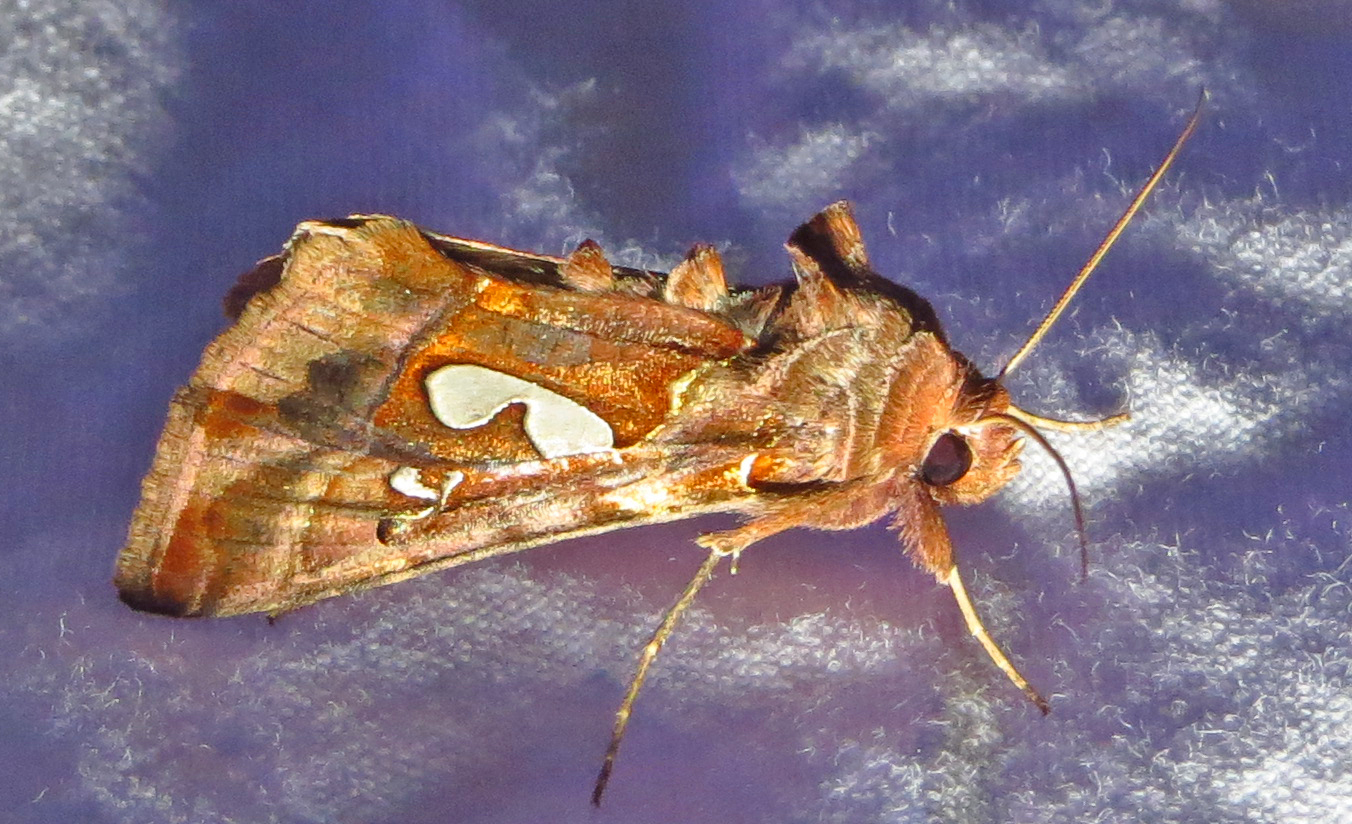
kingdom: Animalia
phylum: Arthropoda
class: Insecta
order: Lepidoptera
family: Noctuidae
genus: Megalographa
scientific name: Megalographa biloba
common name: Cutworm
